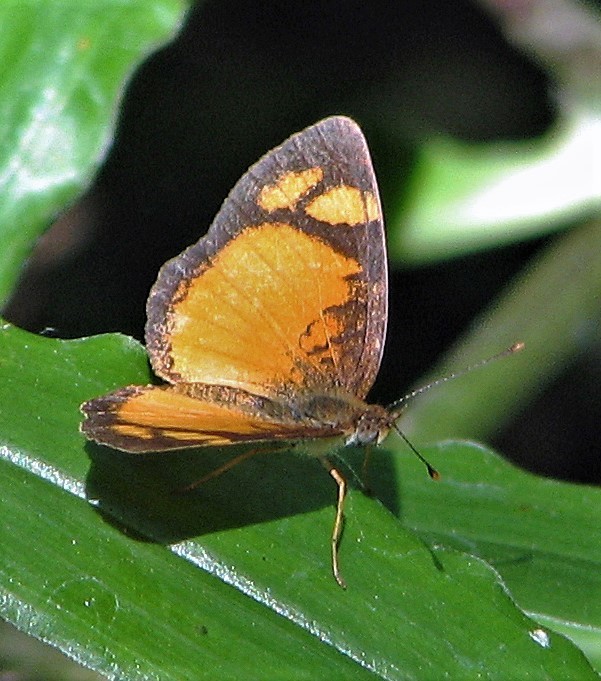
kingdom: Animalia
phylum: Arthropoda
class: Insecta
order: Lepidoptera
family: Nymphalidae
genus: Tegosa
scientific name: Tegosa claudina
